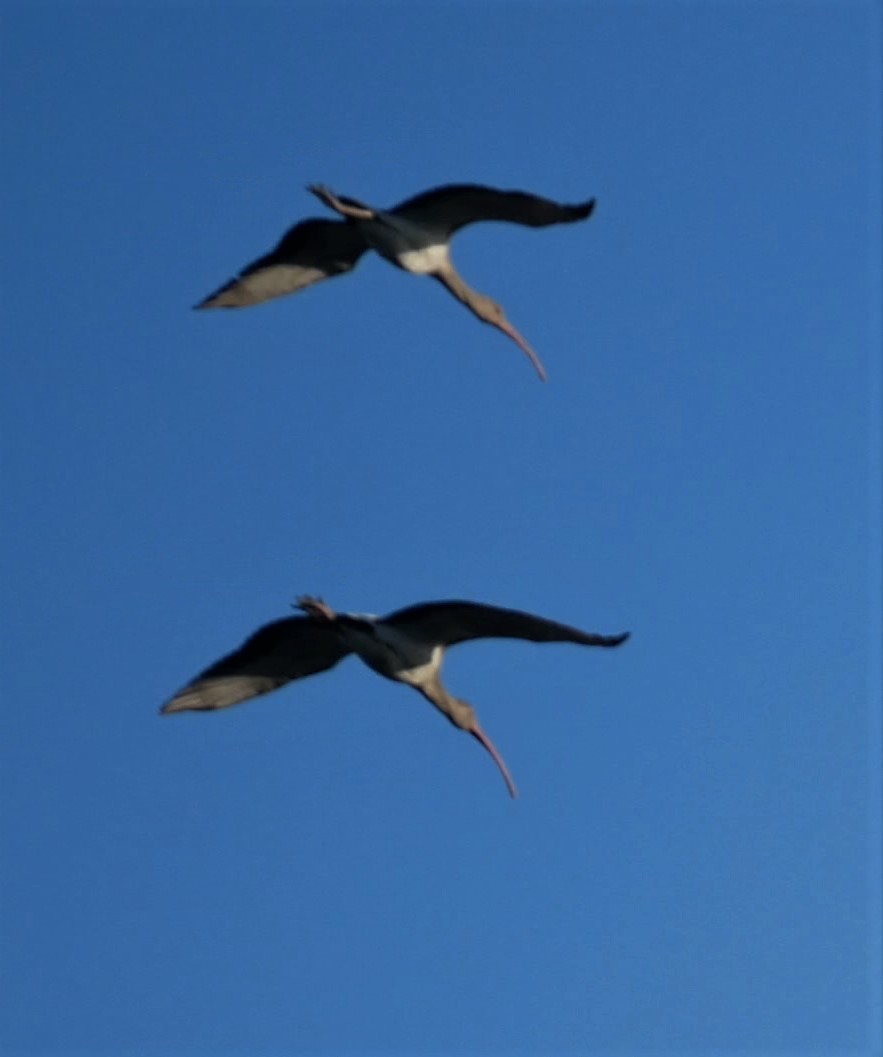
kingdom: Animalia
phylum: Chordata
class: Aves
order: Pelecaniformes
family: Threskiornithidae
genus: Eudocimus
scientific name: Eudocimus albus
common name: White ibis
